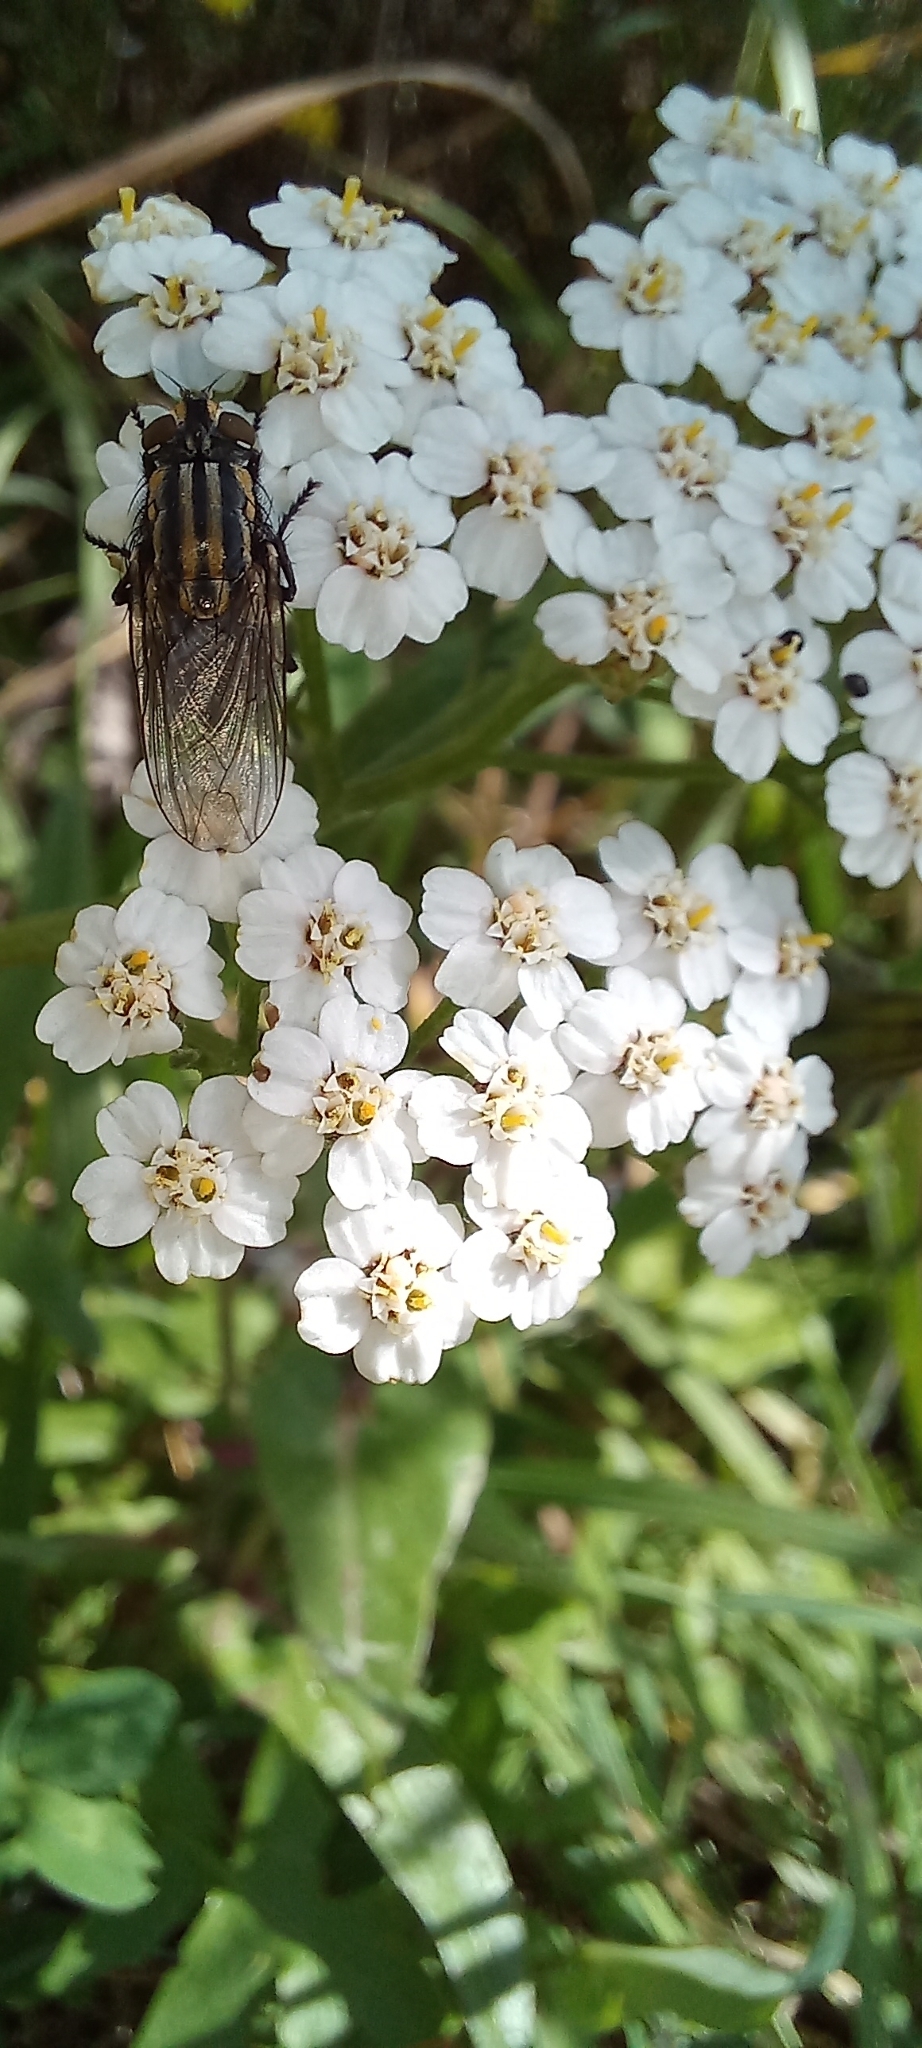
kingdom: Animalia
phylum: Arthropoda
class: Insecta
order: Diptera
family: Sarcophagidae
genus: Oxysarcodexia
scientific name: Oxysarcodexia varia
